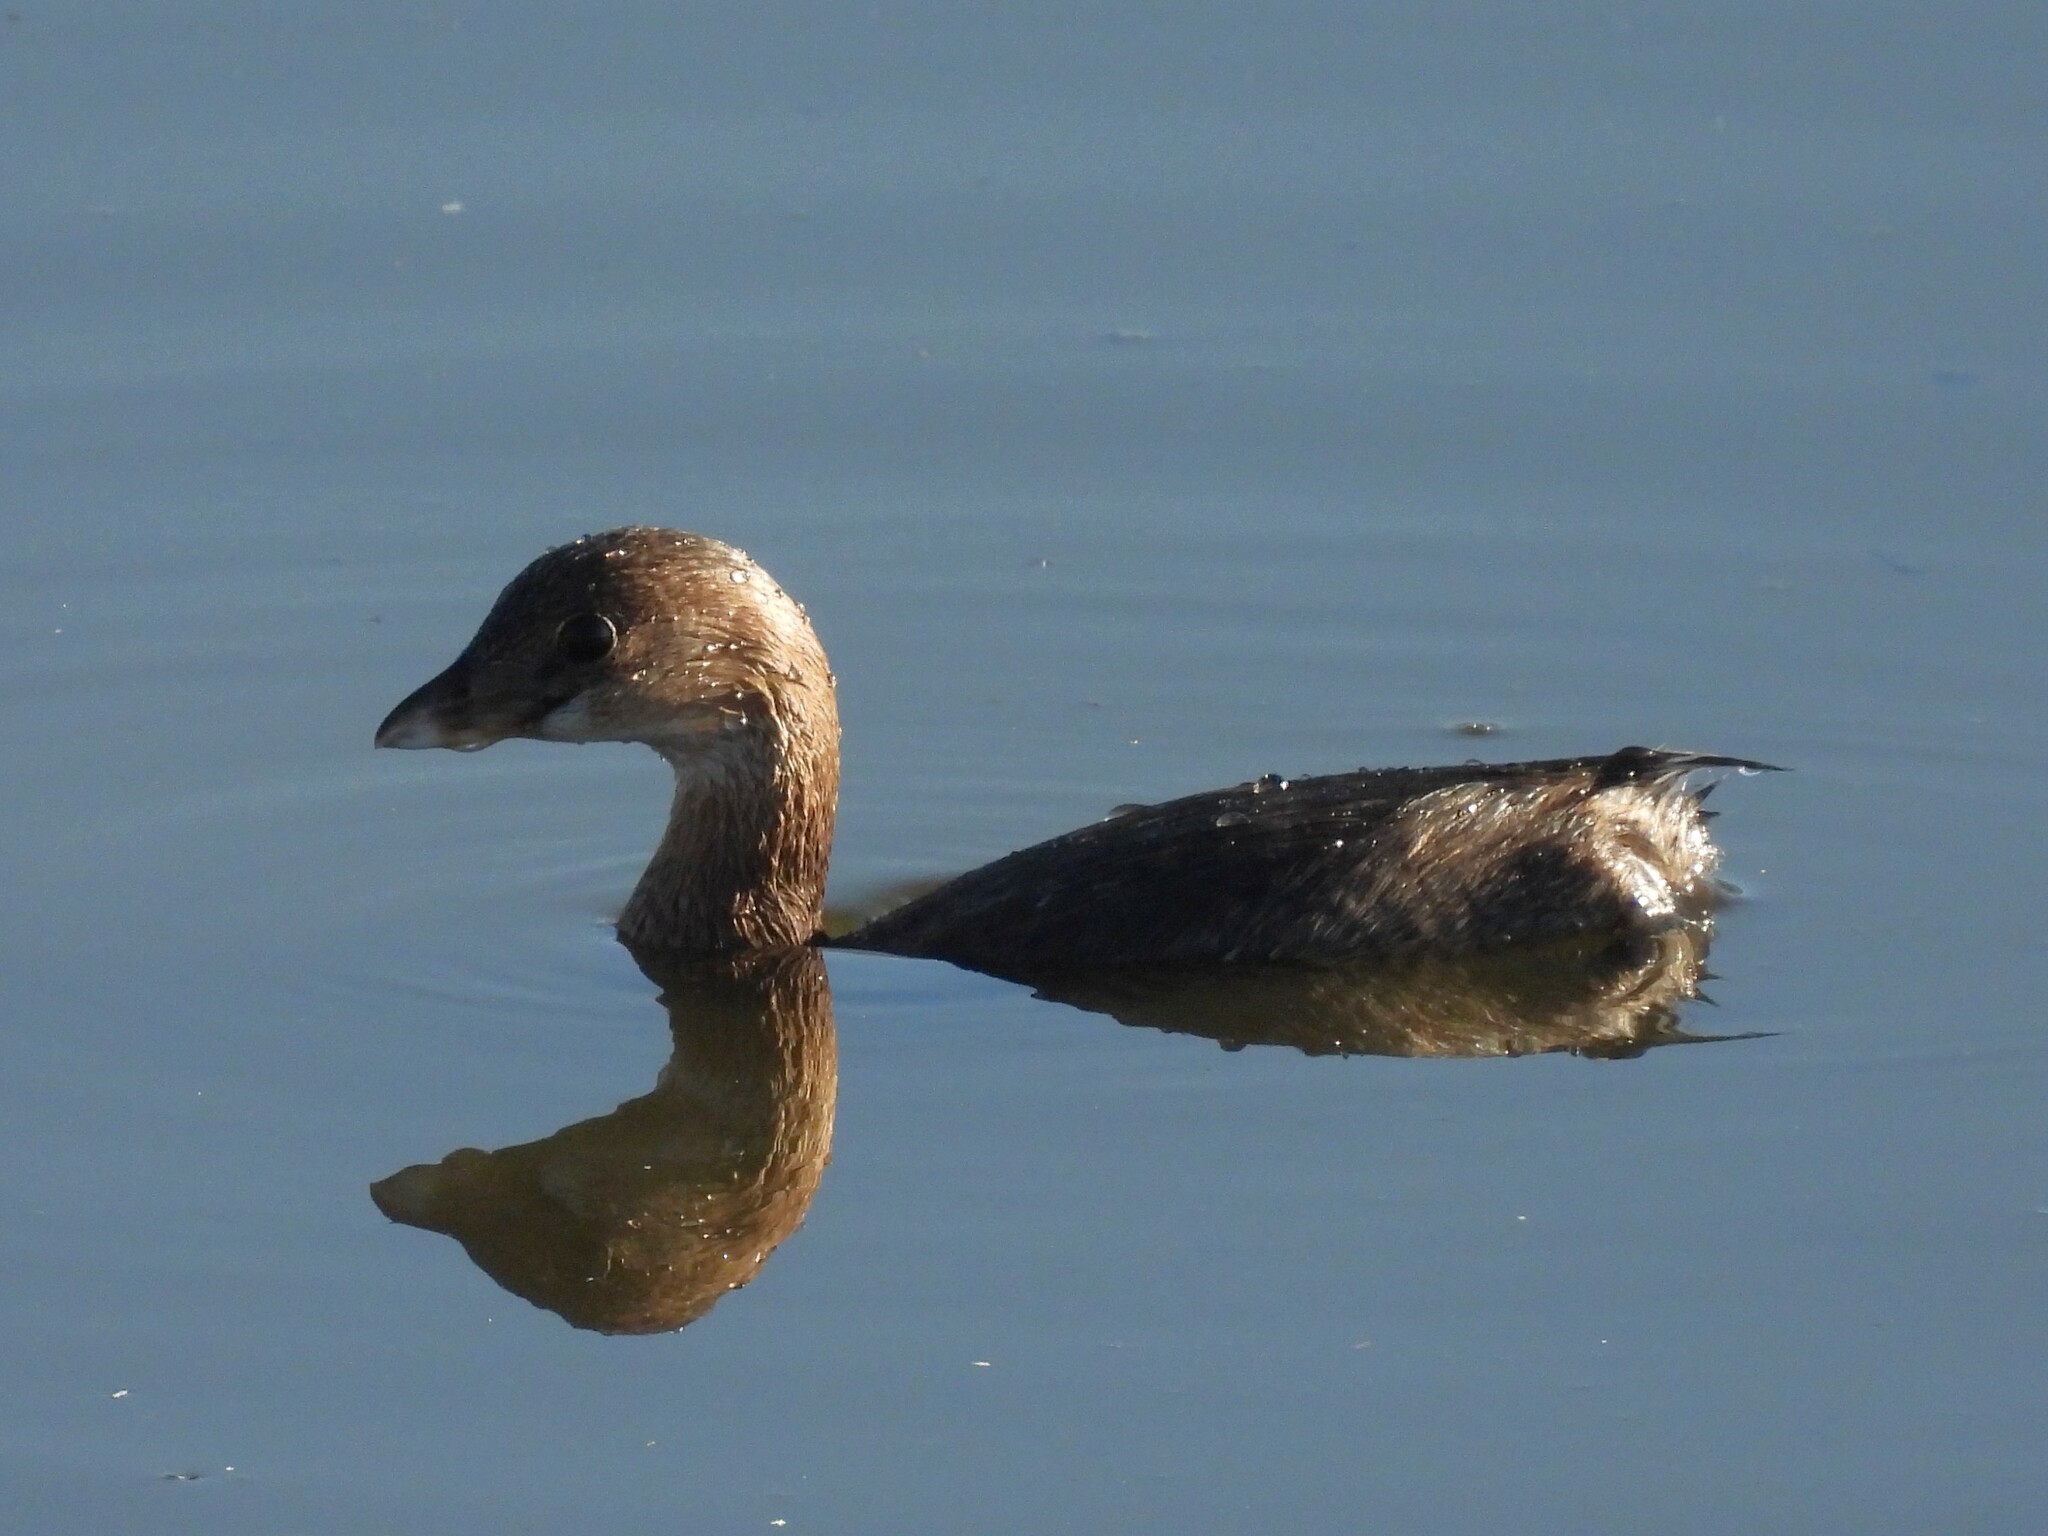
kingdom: Animalia
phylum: Chordata
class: Aves
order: Podicipediformes
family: Podicipedidae
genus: Podilymbus
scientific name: Podilymbus podiceps
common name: Pied-billed grebe
